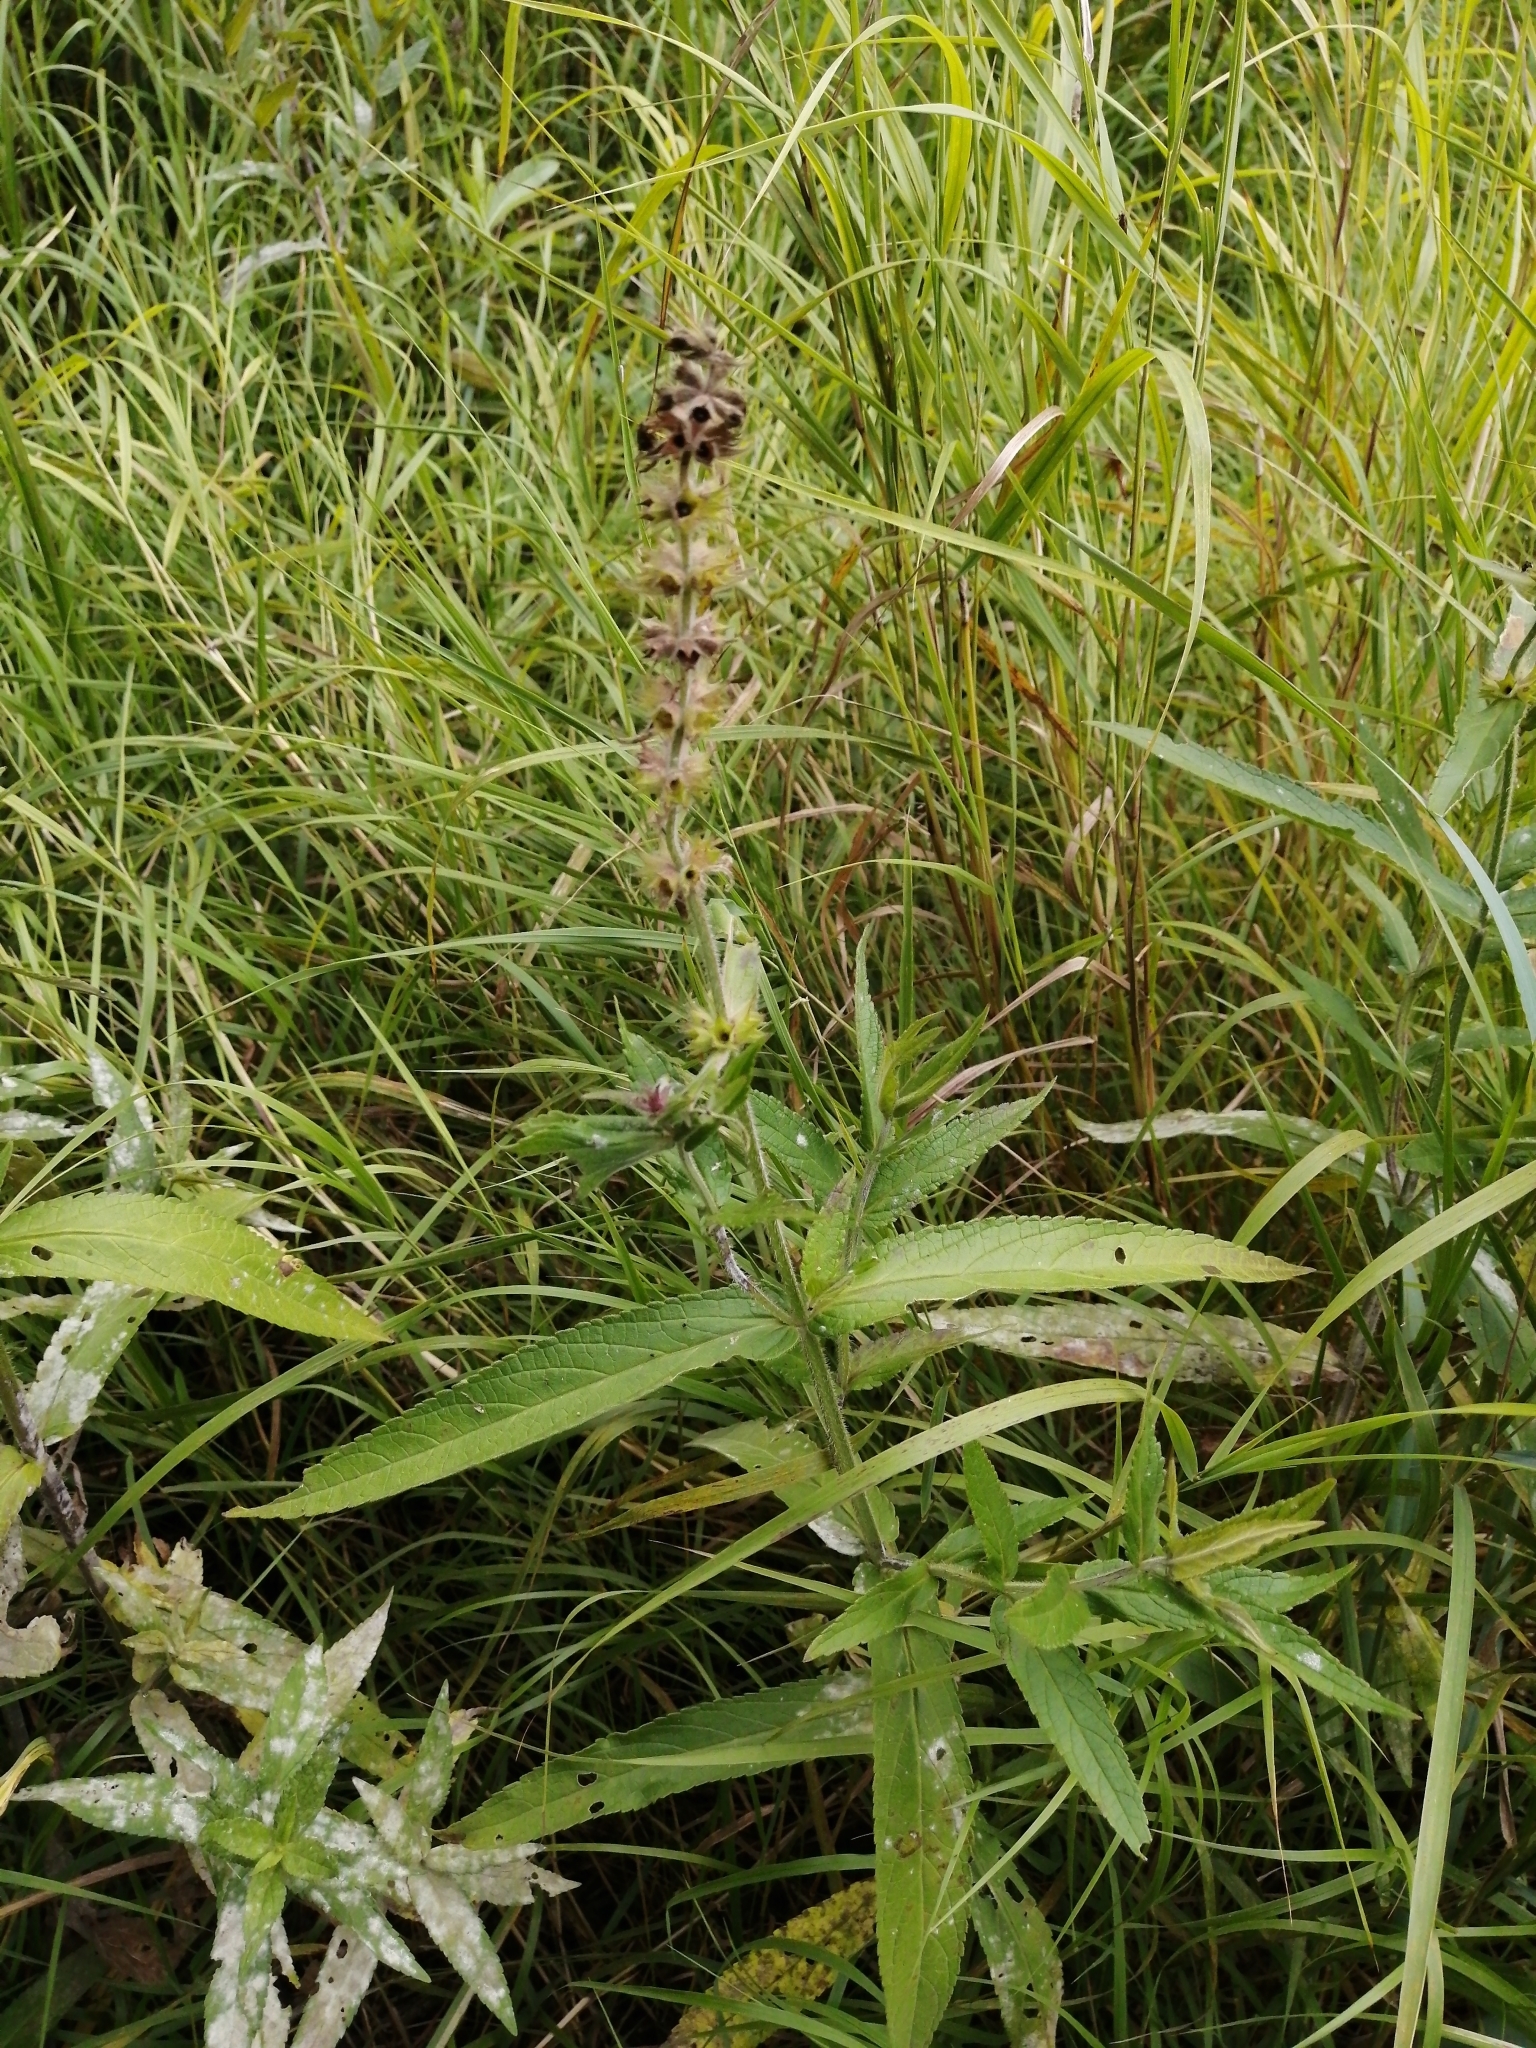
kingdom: Plantae
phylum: Tracheophyta
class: Magnoliopsida
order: Lamiales
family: Lamiaceae
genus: Stachys
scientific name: Stachys palustris
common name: Marsh woundwort
